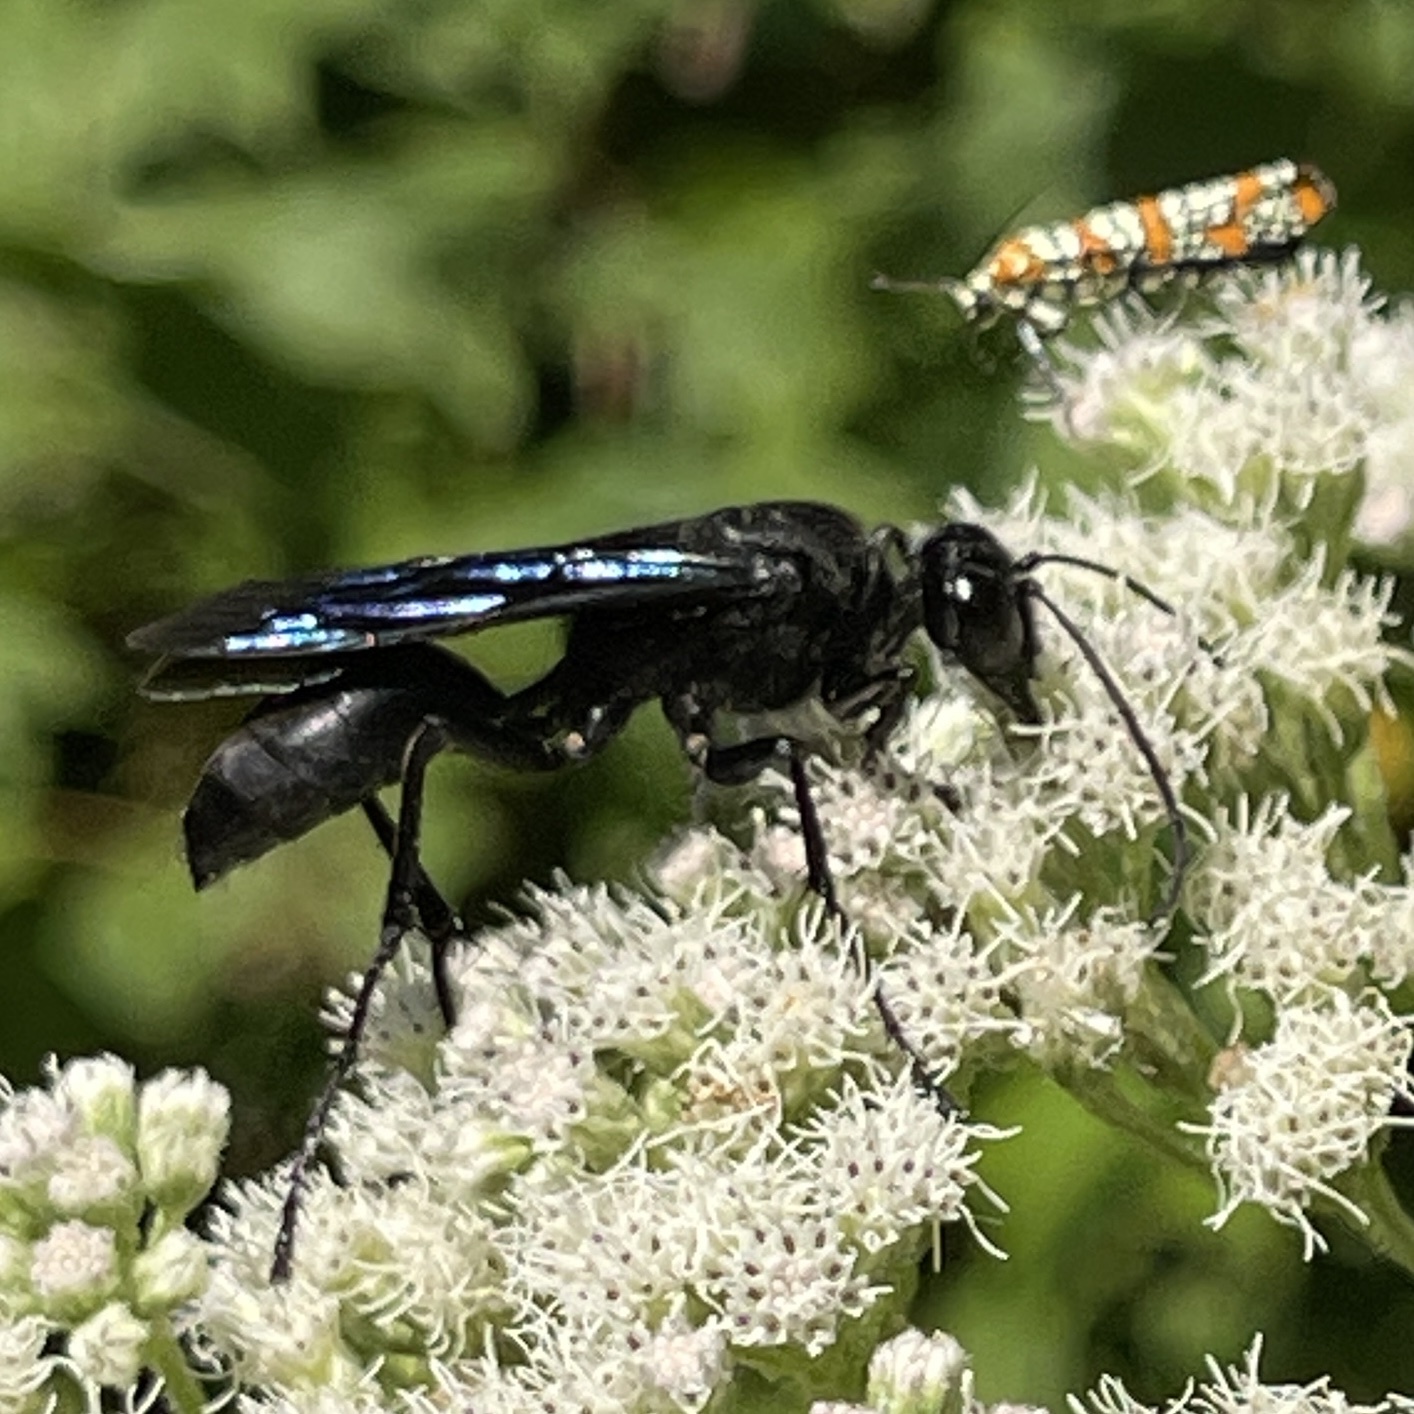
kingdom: Animalia
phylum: Arthropoda
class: Insecta
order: Hymenoptera
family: Sphecidae
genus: Sphex
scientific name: Sphex pensylvanicus
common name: Great black digger wasp
